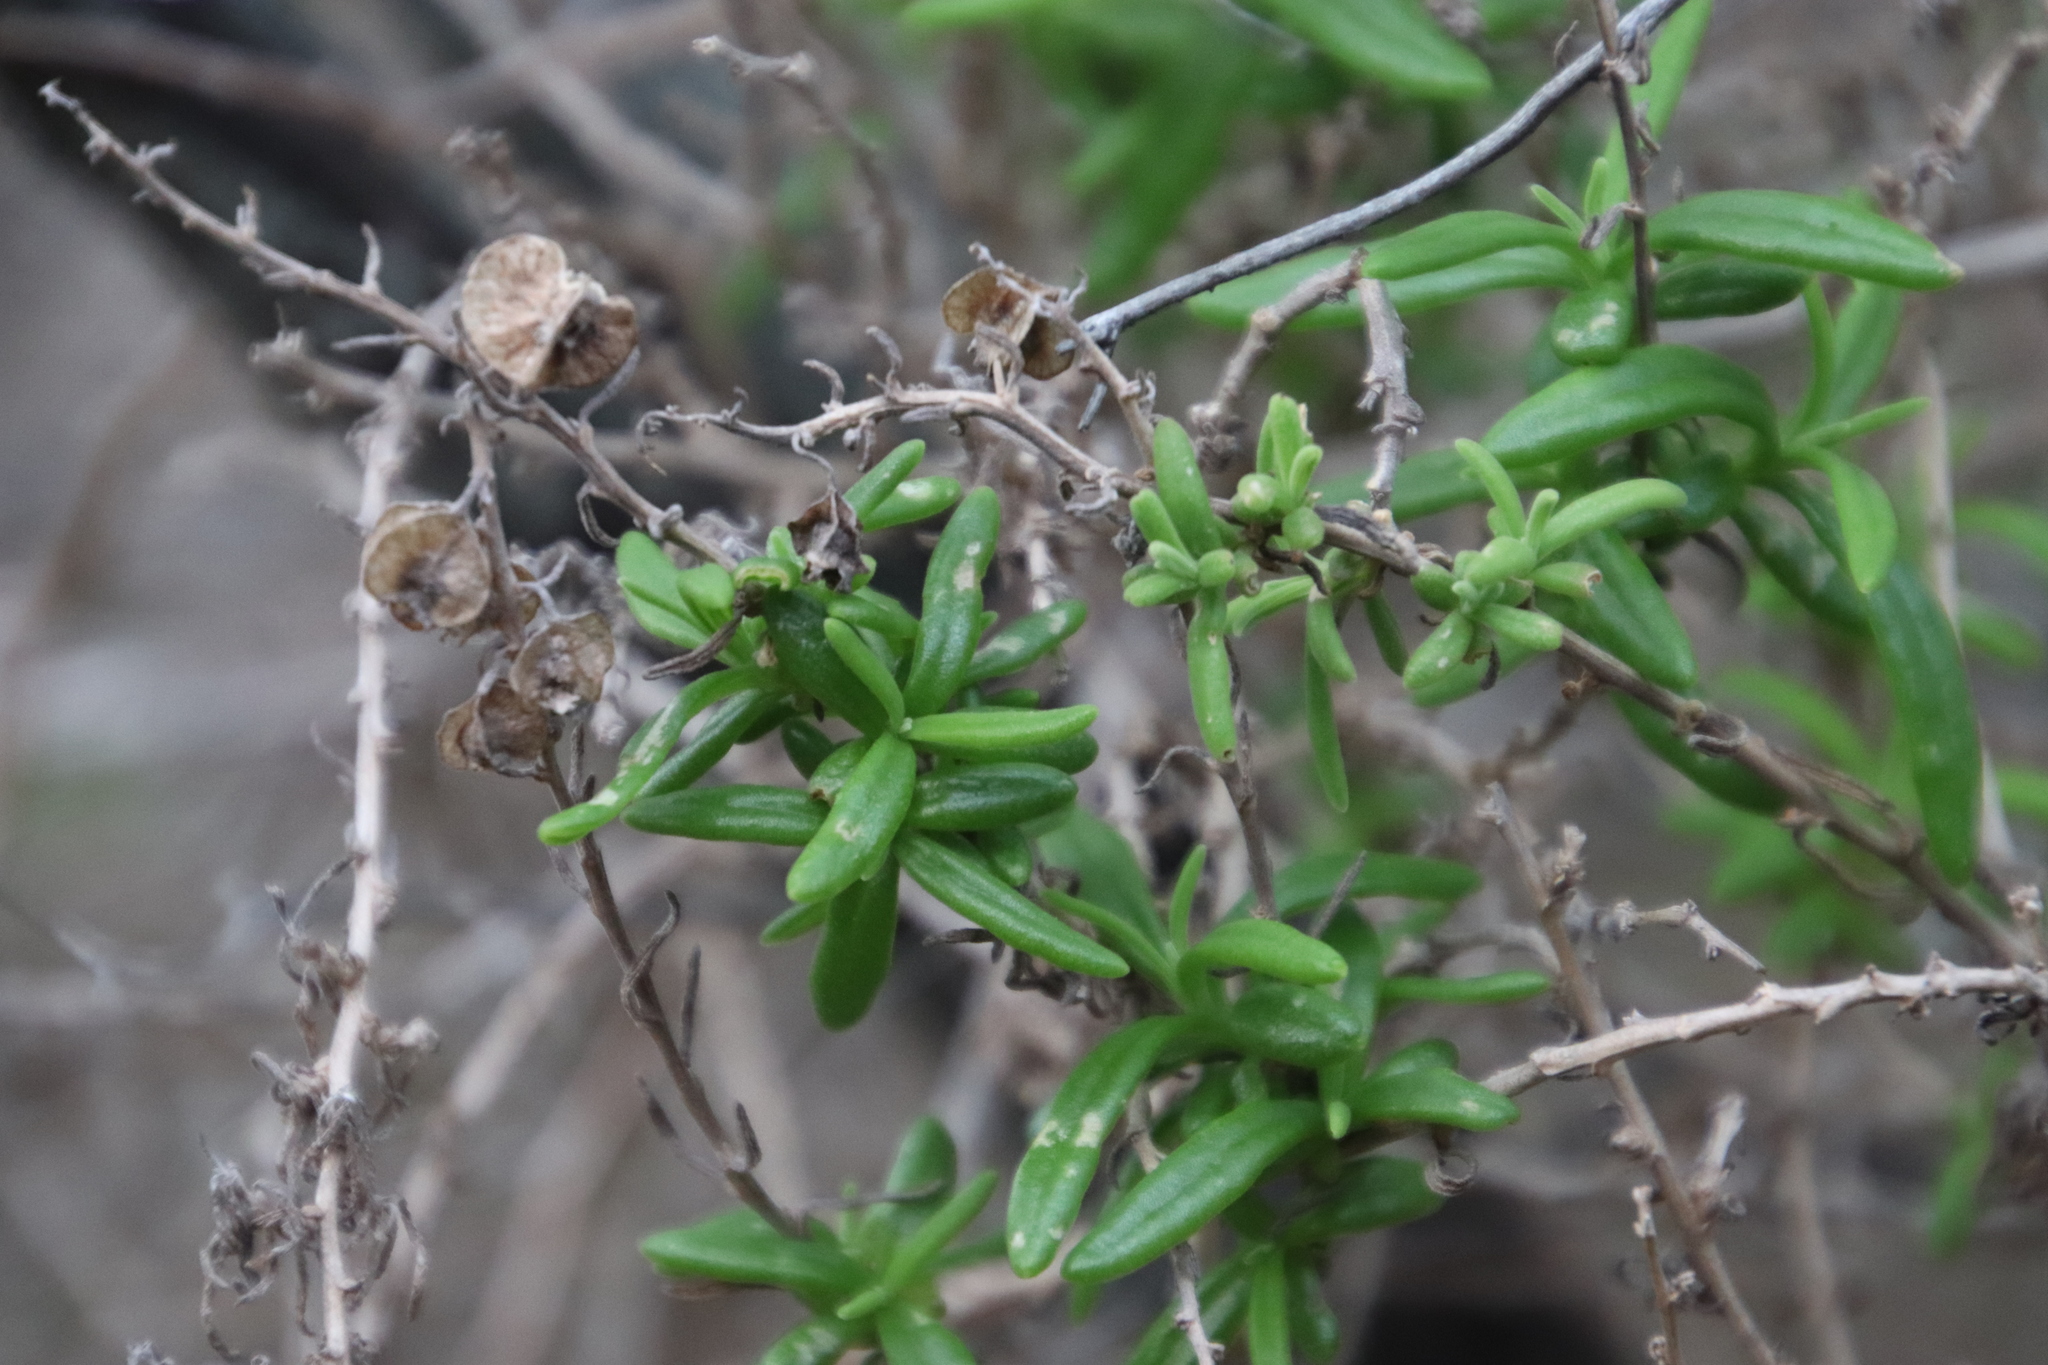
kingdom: Plantae
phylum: Tracheophyta
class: Magnoliopsida
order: Caryophyllales
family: Aizoaceae
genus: Tetragonia
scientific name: Tetragonia fruticosa
